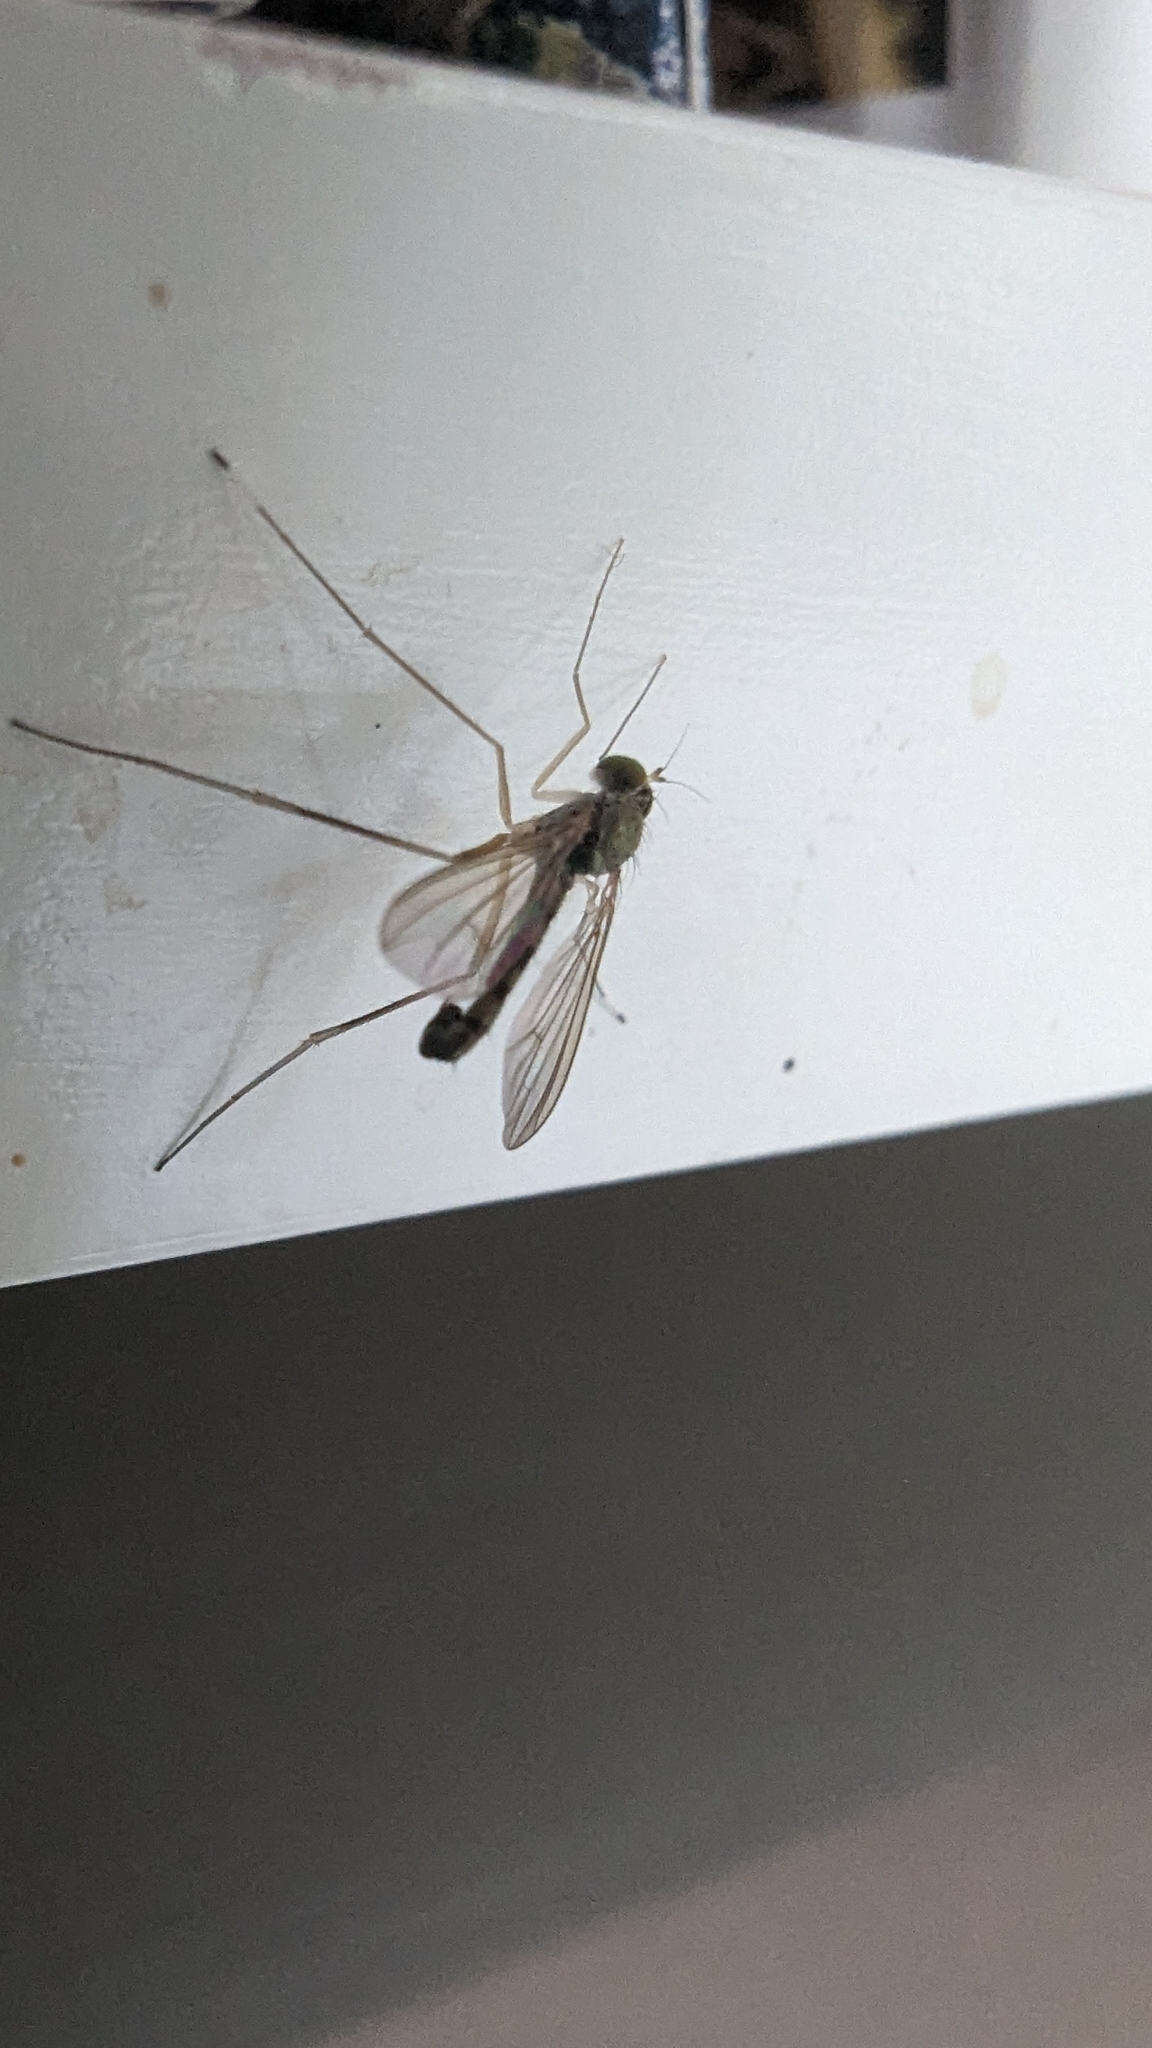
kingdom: Animalia
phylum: Arthropoda
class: Insecta
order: Diptera
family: Dolichopodidae
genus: Sciapus
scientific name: Sciapus platypterus
